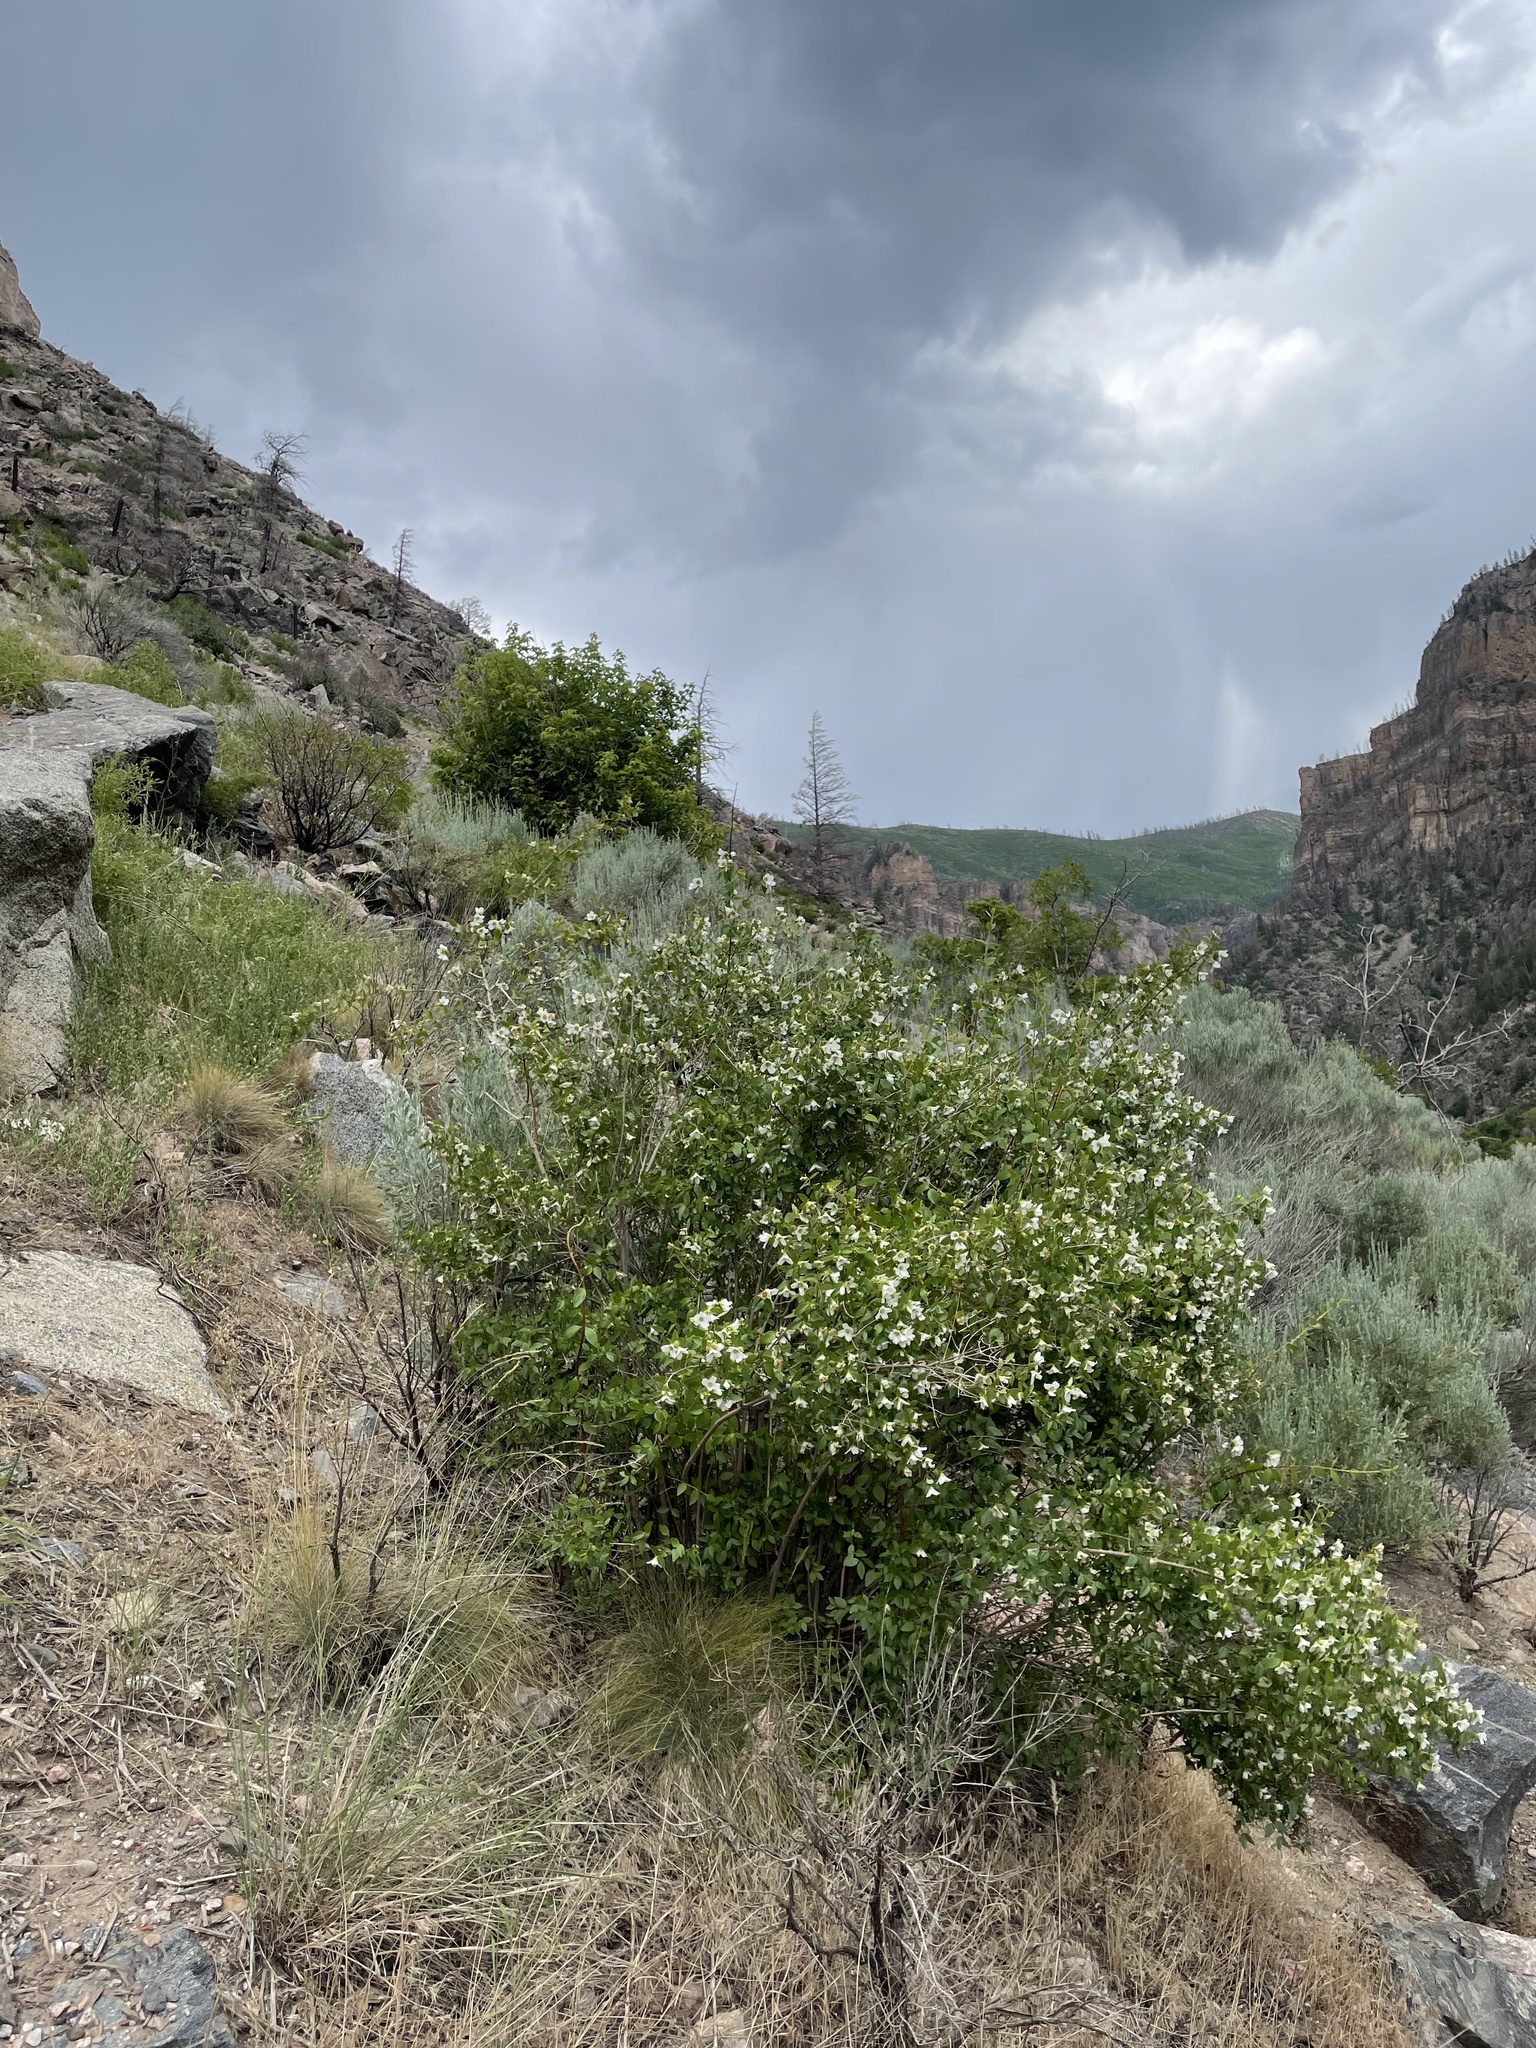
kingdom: Plantae
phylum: Tracheophyta
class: Magnoliopsida
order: Cornales
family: Hydrangeaceae
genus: Philadelphus
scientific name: Philadelphus microphyllus
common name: Desert mock orange
